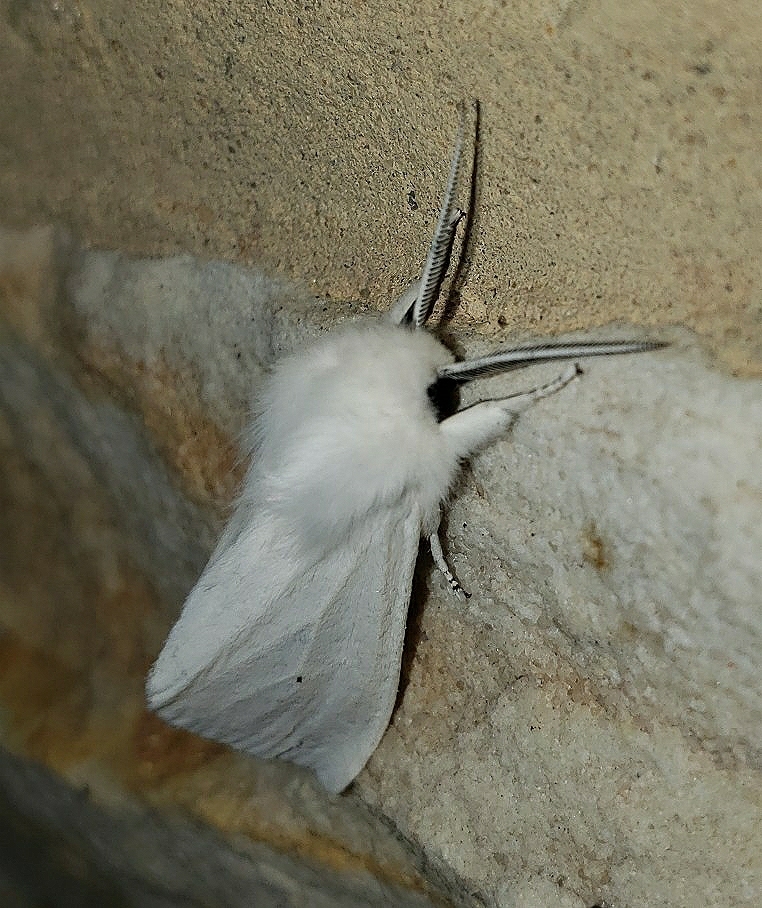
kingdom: Animalia
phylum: Arthropoda
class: Insecta
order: Lepidoptera
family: Erebidae
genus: Spilosoma
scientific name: Spilosoma virginica
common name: Virginia tiger moth
